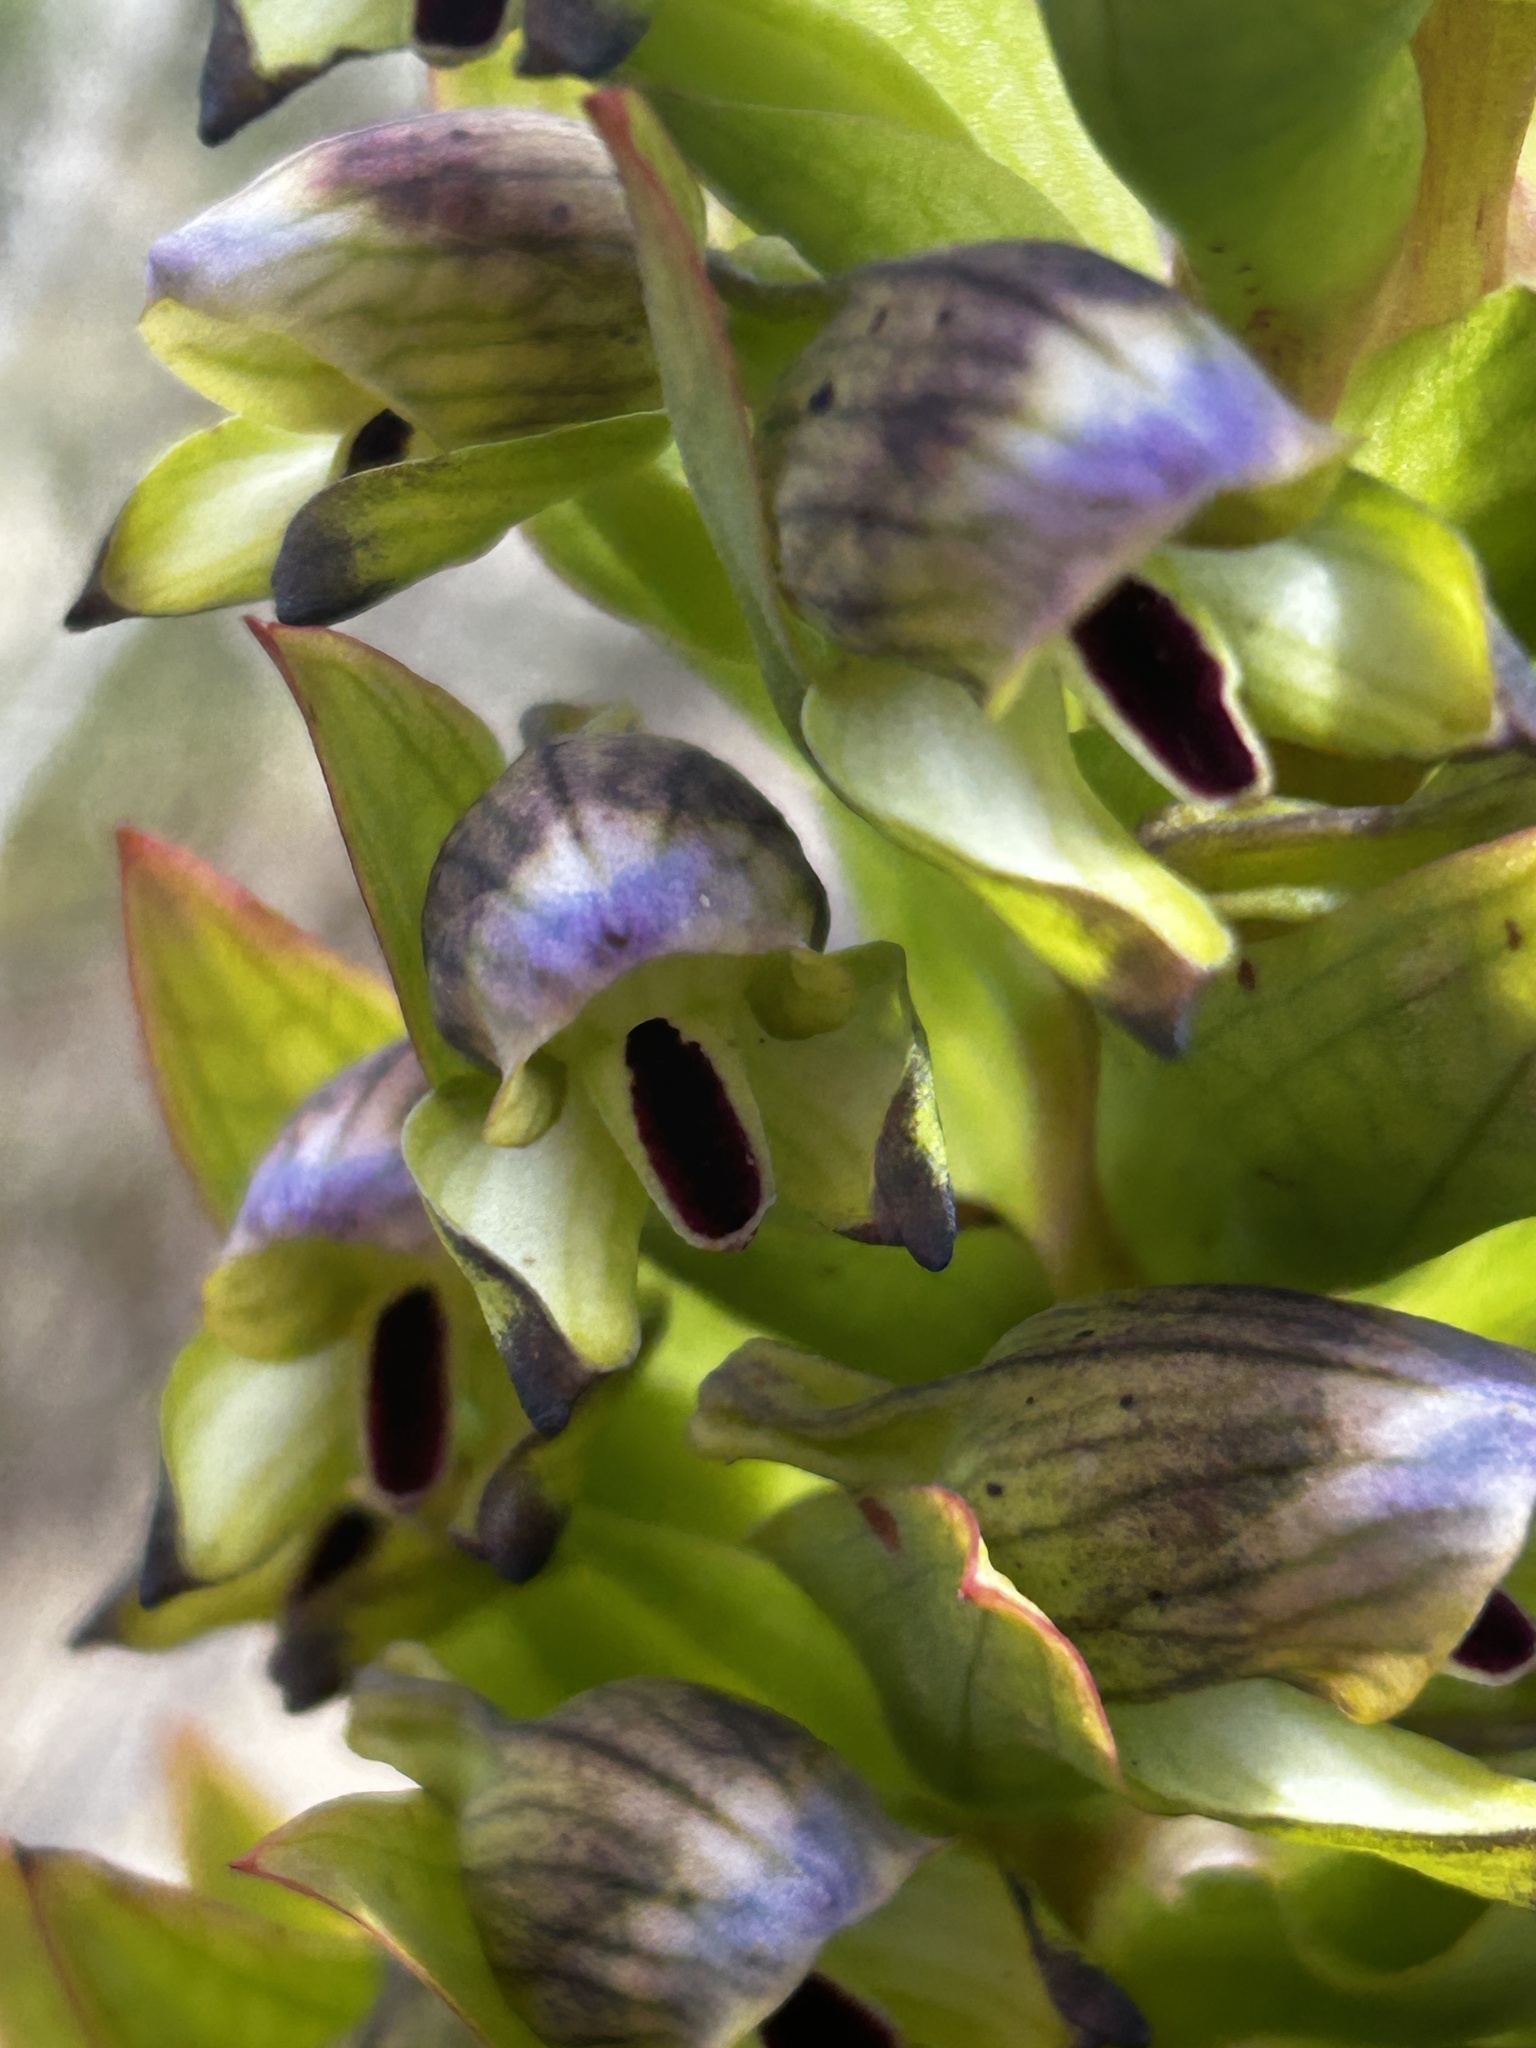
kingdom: Plantae
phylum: Tracheophyta
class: Liliopsida
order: Asparagales
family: Orchidaceae
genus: Disa
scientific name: Disa hallackii
